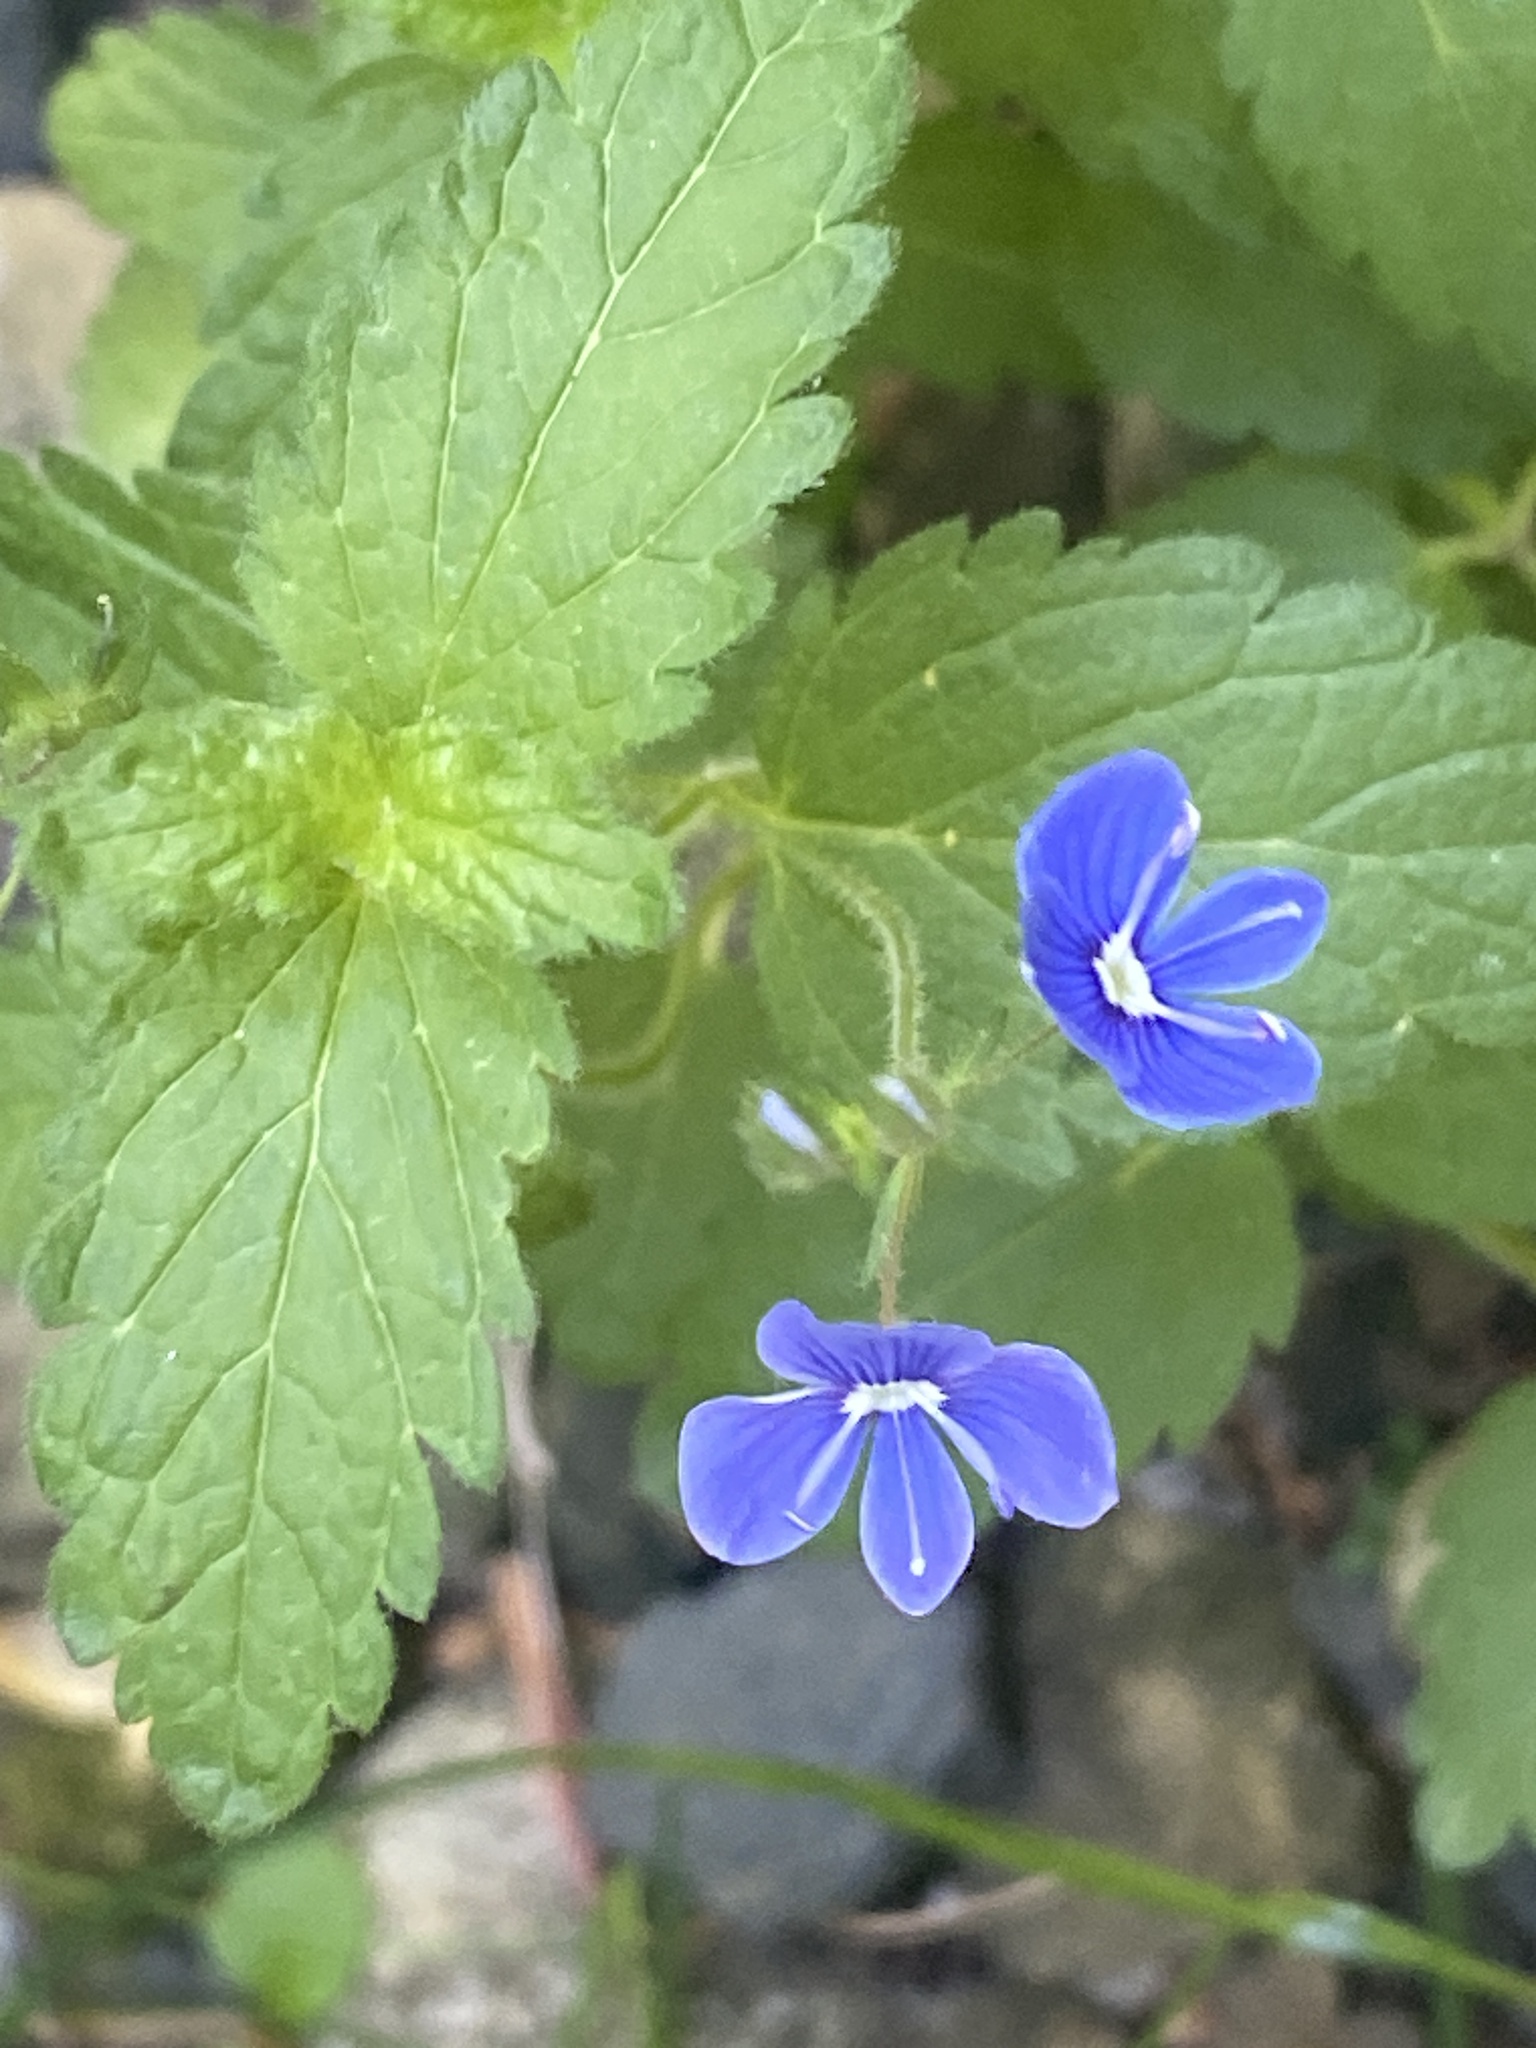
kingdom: Plantae
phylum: Tracheophyta
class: Magnoliopsida
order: Lamiales
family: Plantaginaceae
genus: Veronica
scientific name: Veronica chamaedrys
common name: Germander speedwell
